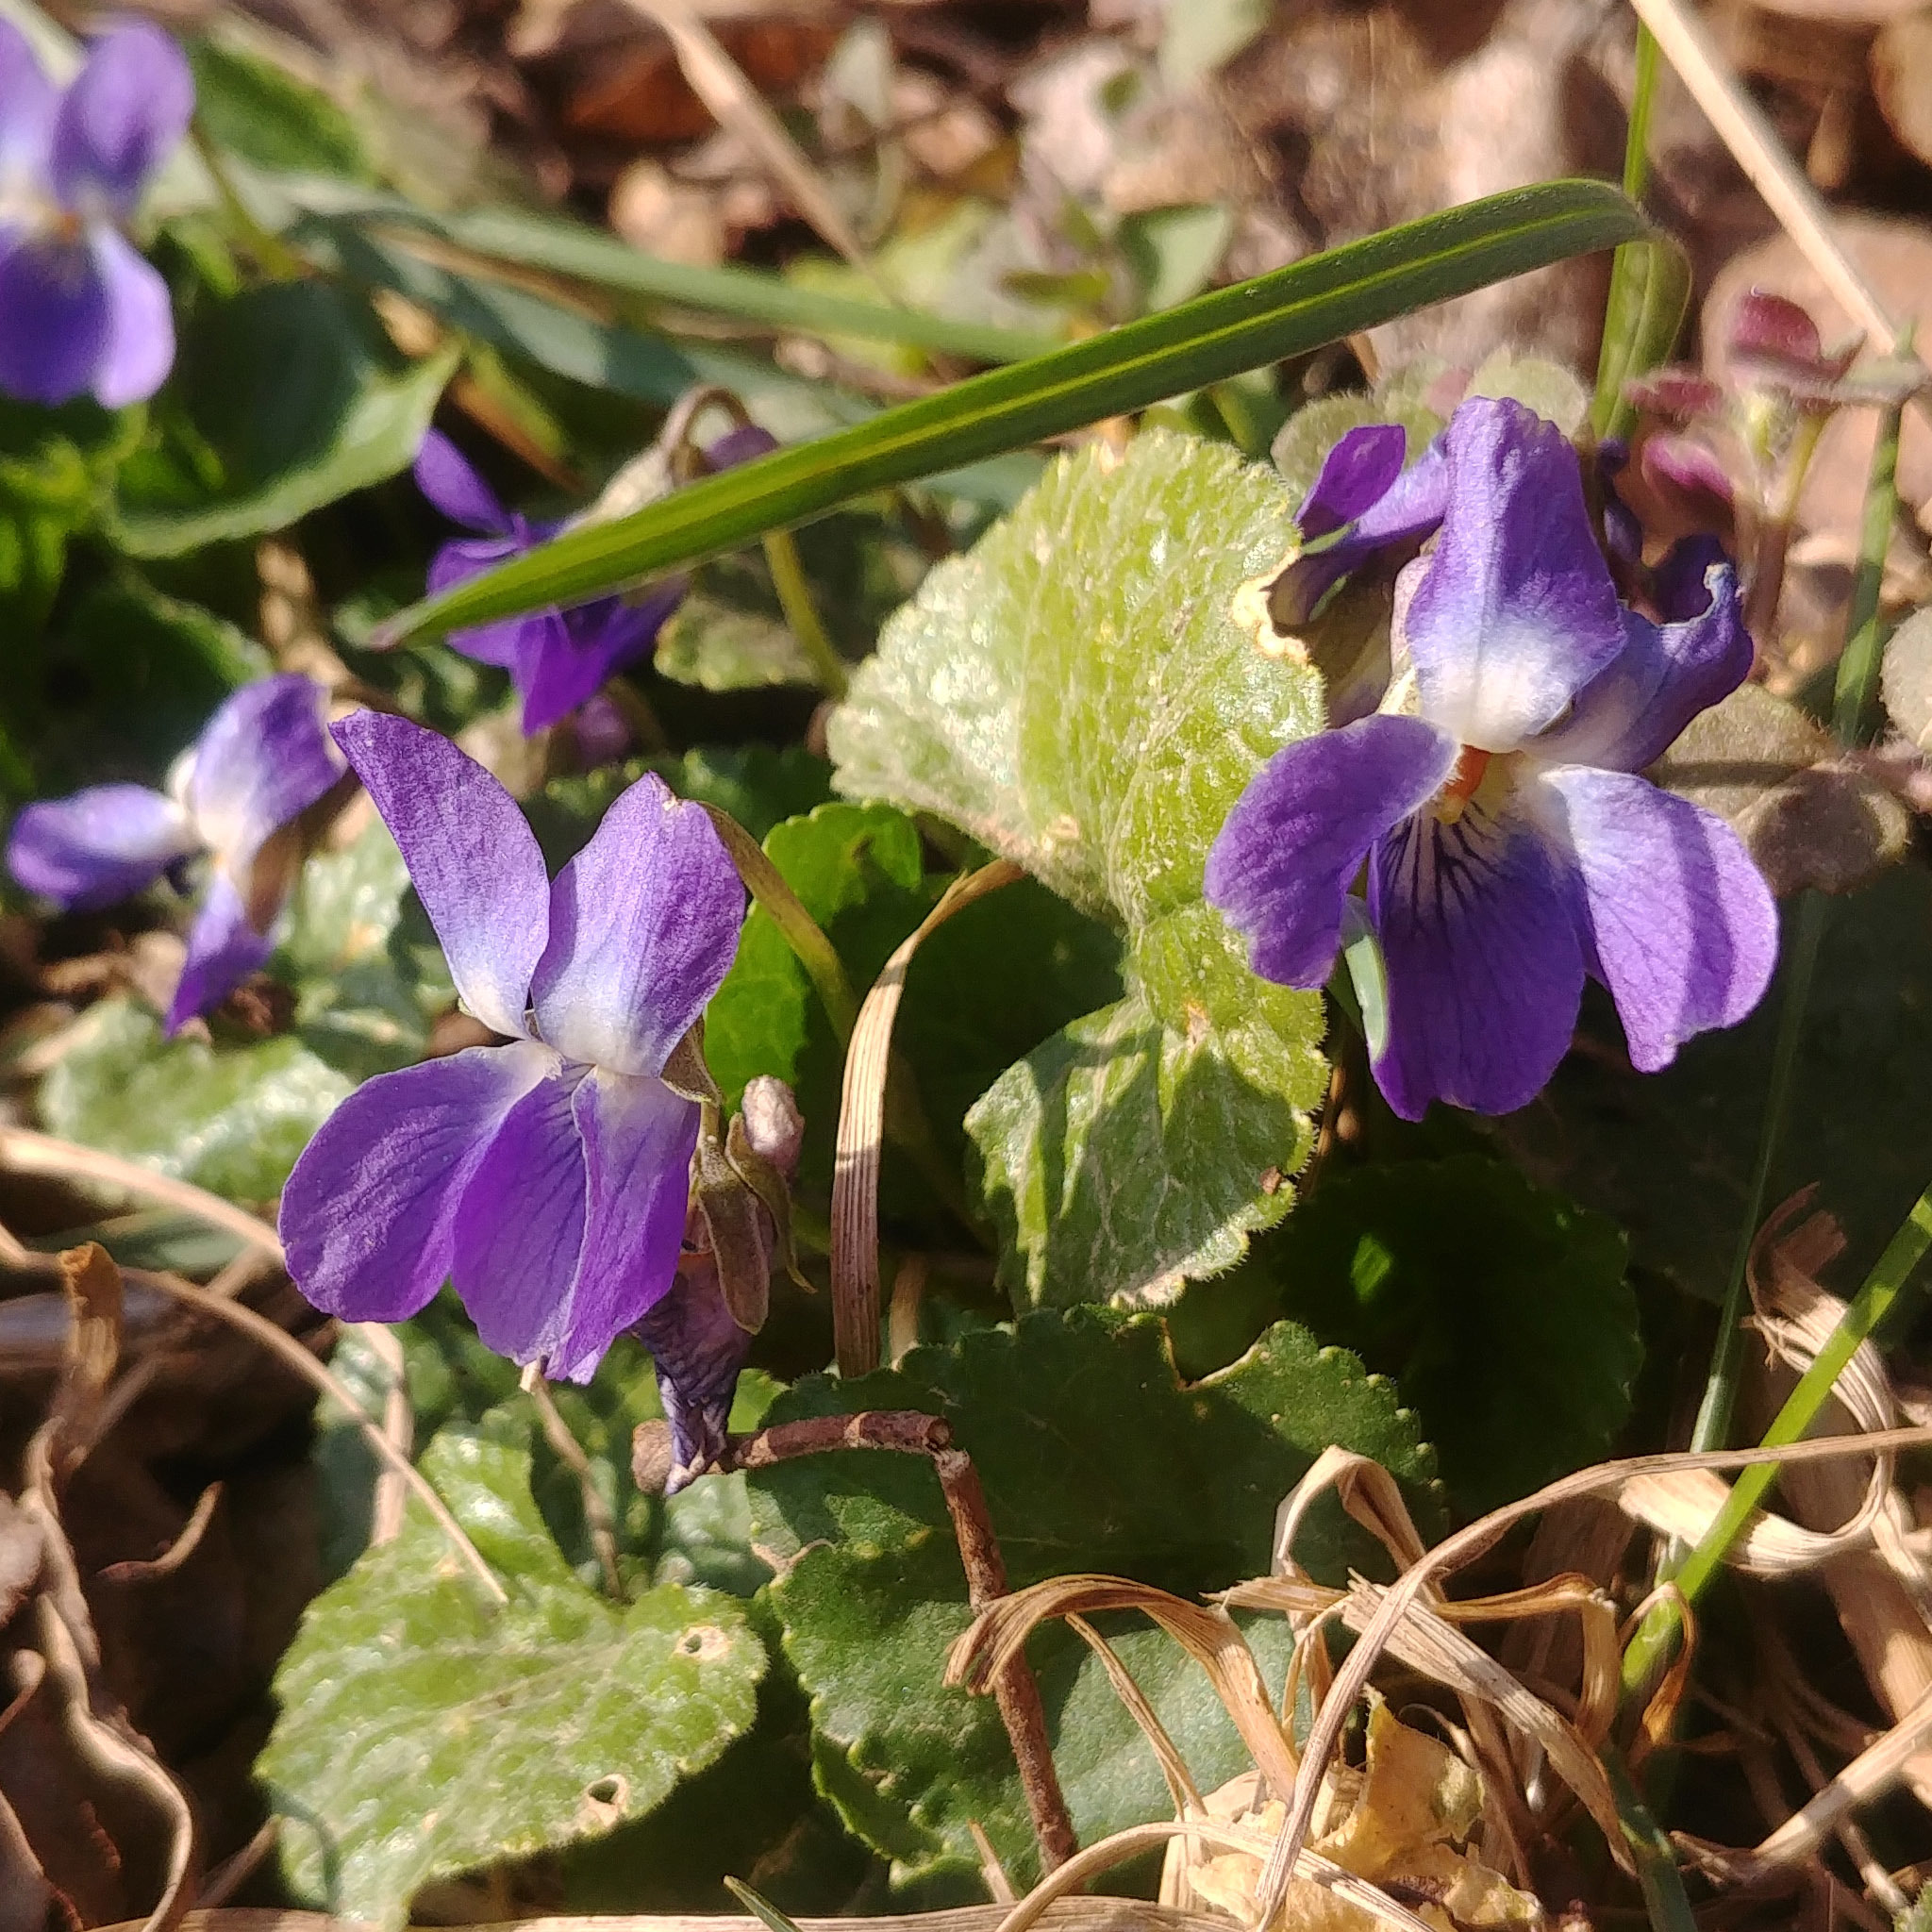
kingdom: Plantae
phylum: Tracheophyta
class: Magnoliopsida
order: Malpighiales
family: Violaceae
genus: Viola
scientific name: Viola odorata
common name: Sweet violet
